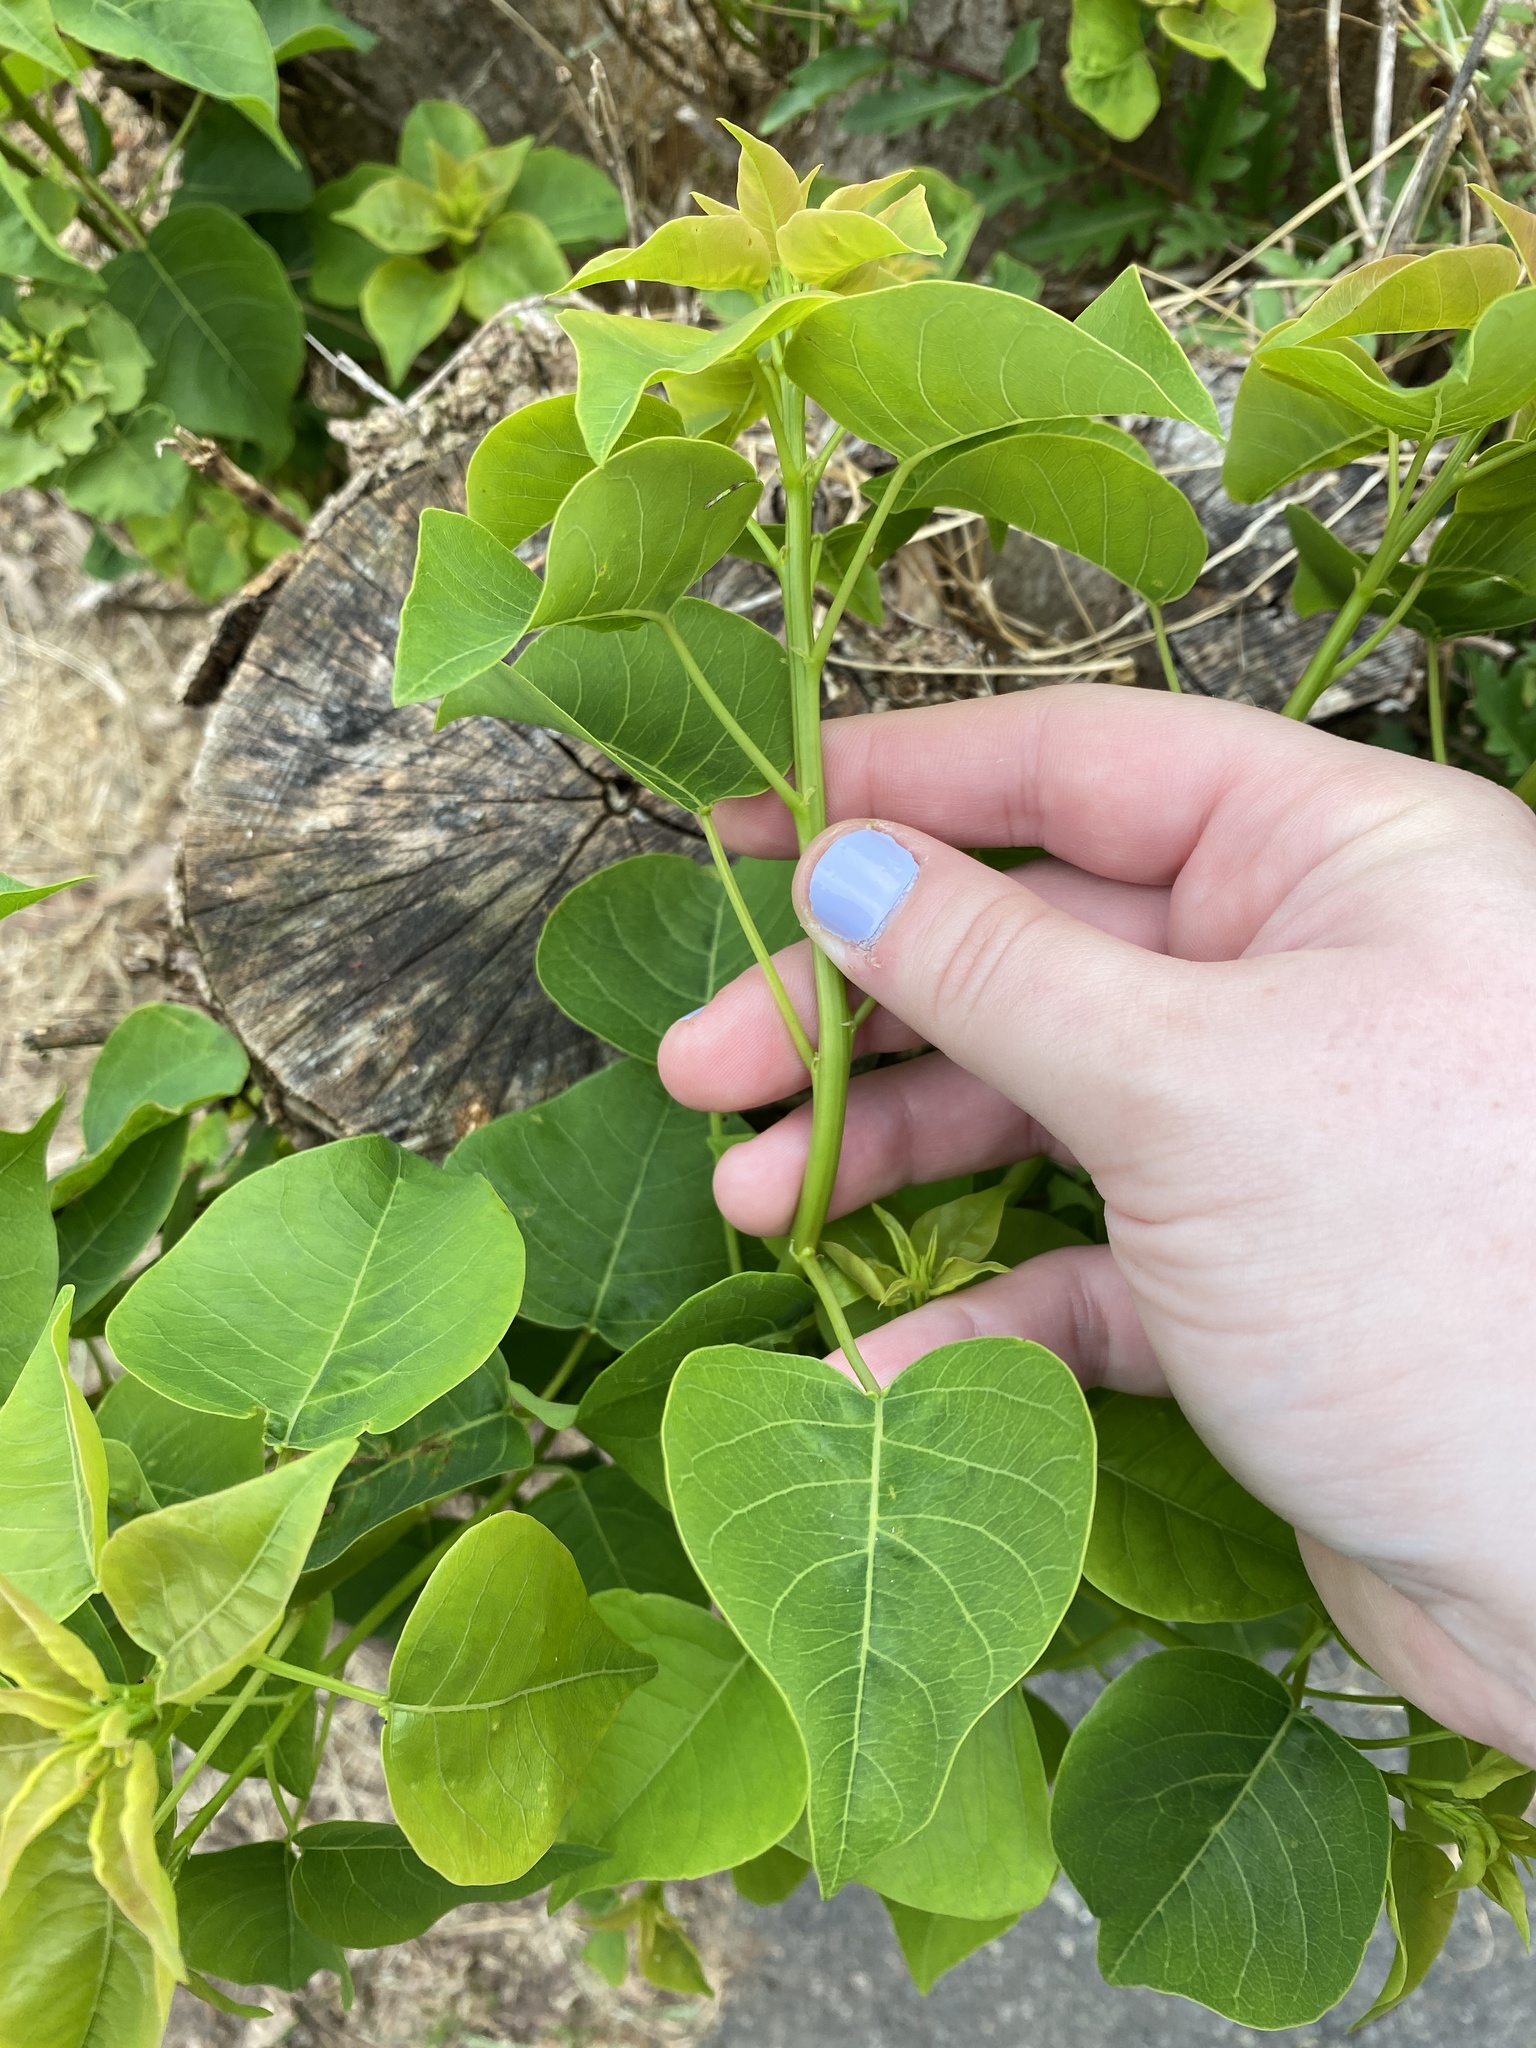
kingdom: Plantae
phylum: Tracheophyta
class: Magnoliopsida
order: Malpighiales
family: Euphorbiaceae
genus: Triadica
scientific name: Triadica sebifera
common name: Chinese tallow
